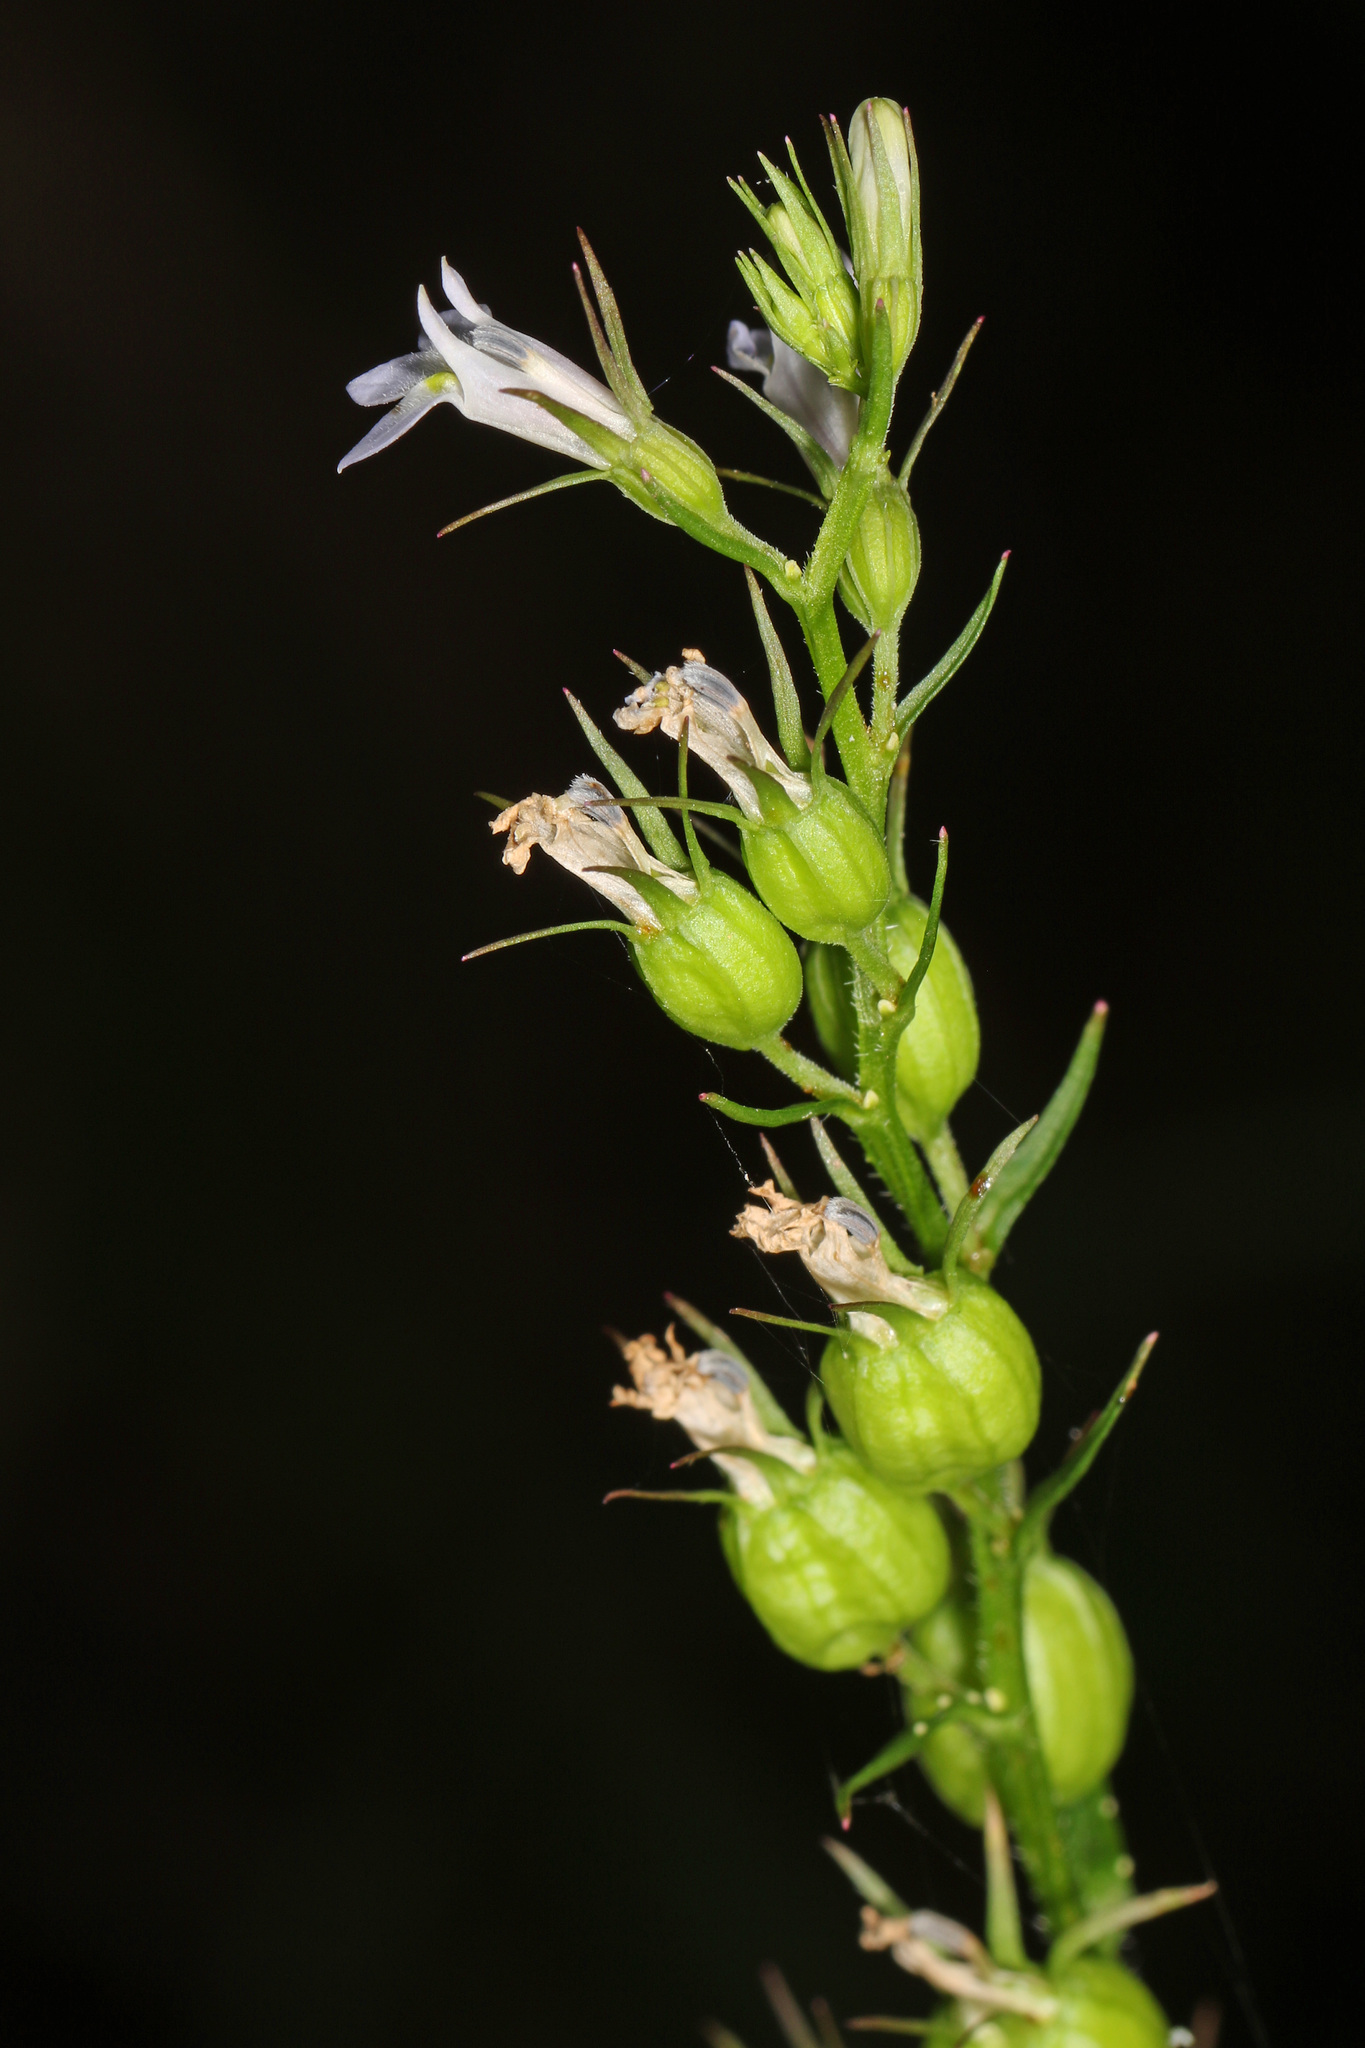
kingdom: Plantae
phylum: Tracheophyta
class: Magnoliopsida
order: Asterales
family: Campanulaceae
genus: Lobelia
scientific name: Lobelia inflata
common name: Indian tobacco
